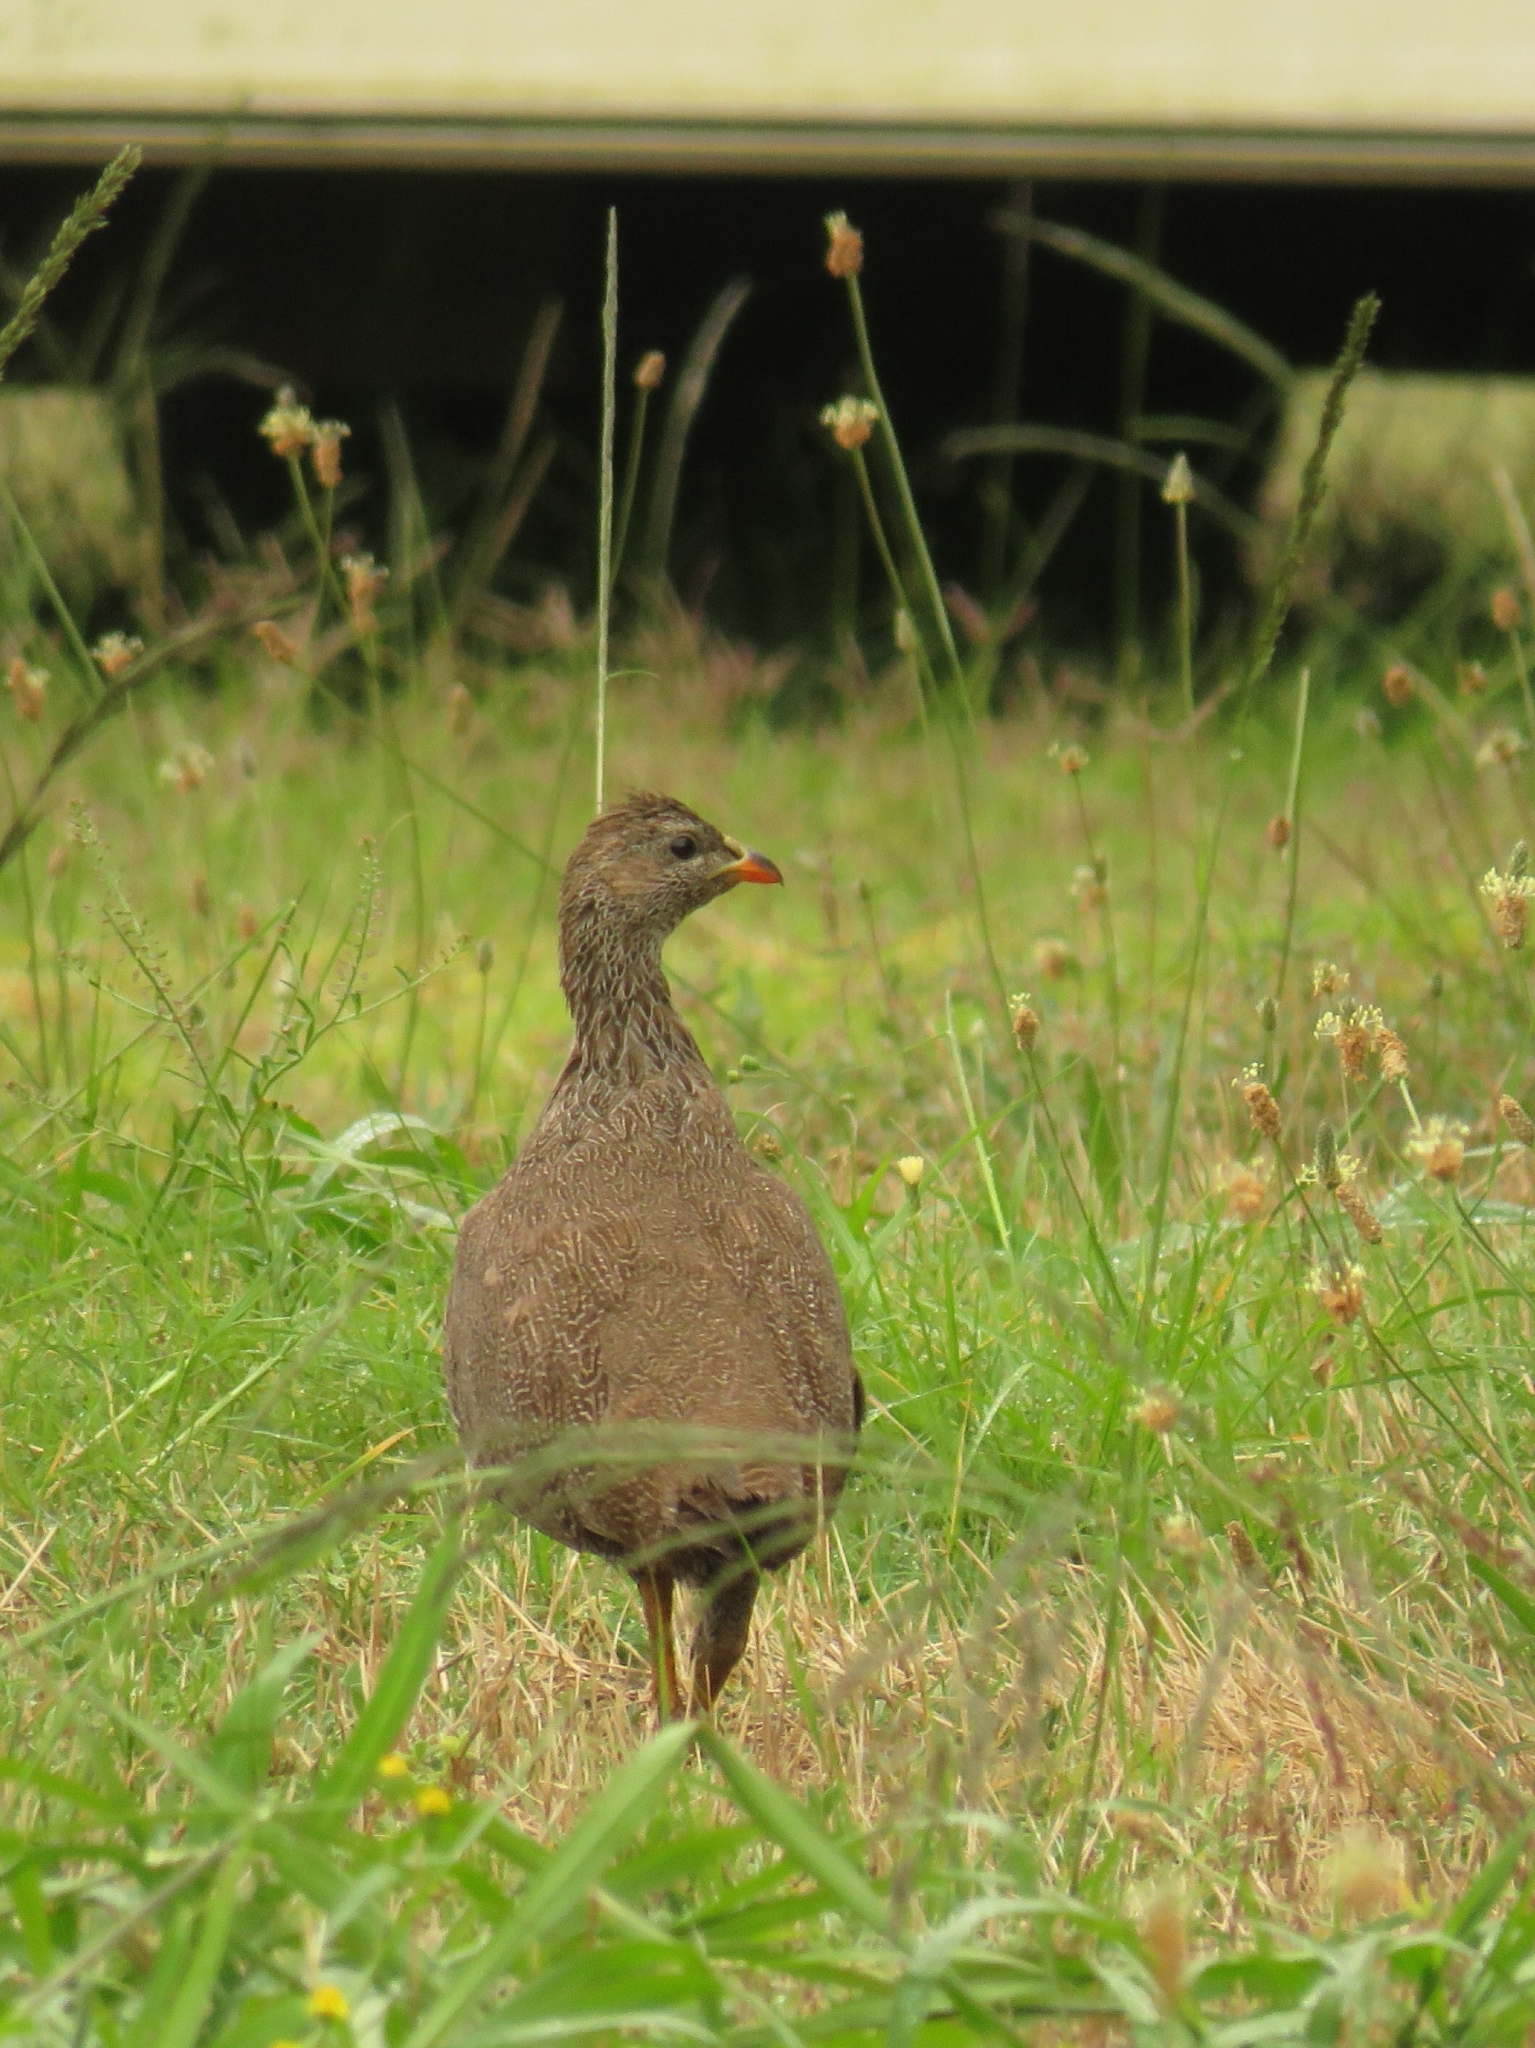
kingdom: Animalia
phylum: Chordata
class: Aves
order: Galliformes
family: Phasianidae
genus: Pternistis
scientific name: Pternistis capensis
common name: Cape spurfowl
